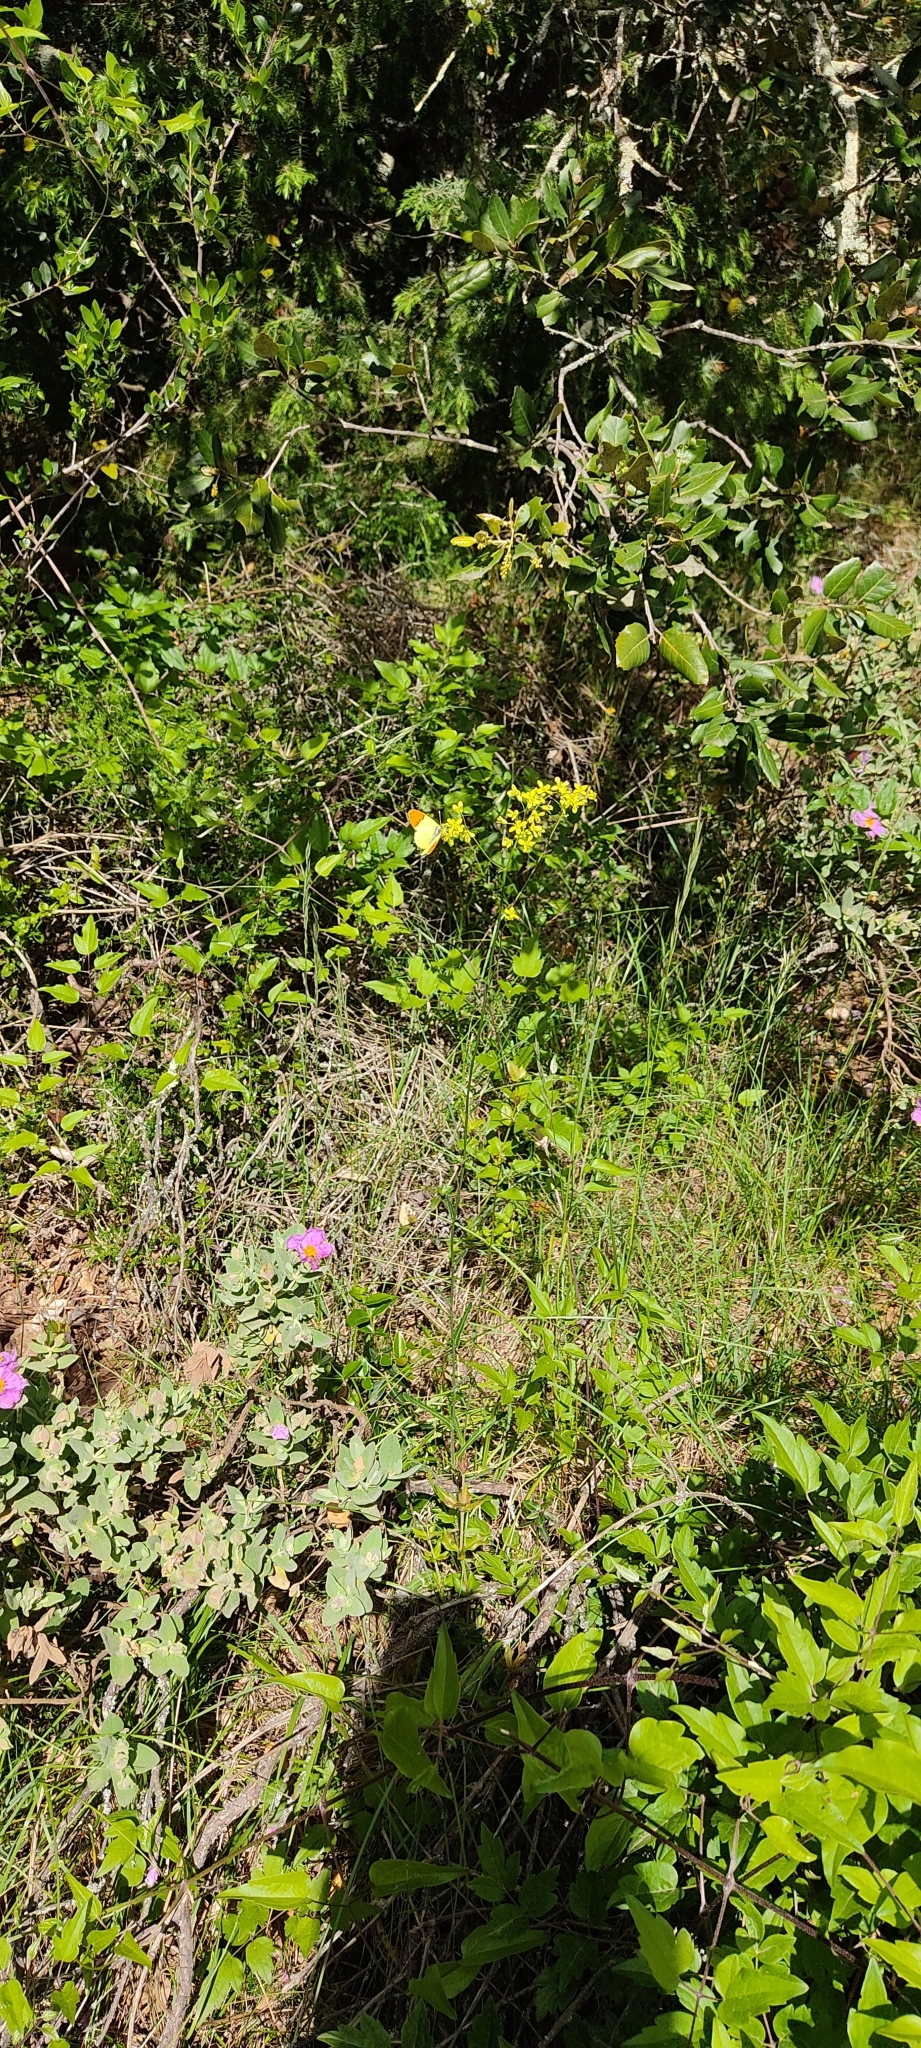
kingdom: Animalia
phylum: Arthropoda
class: Insecta
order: Lepidoptera
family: Pieridae
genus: Anthocharis
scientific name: Anthocharis euphenoides
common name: Provence orange-tip
